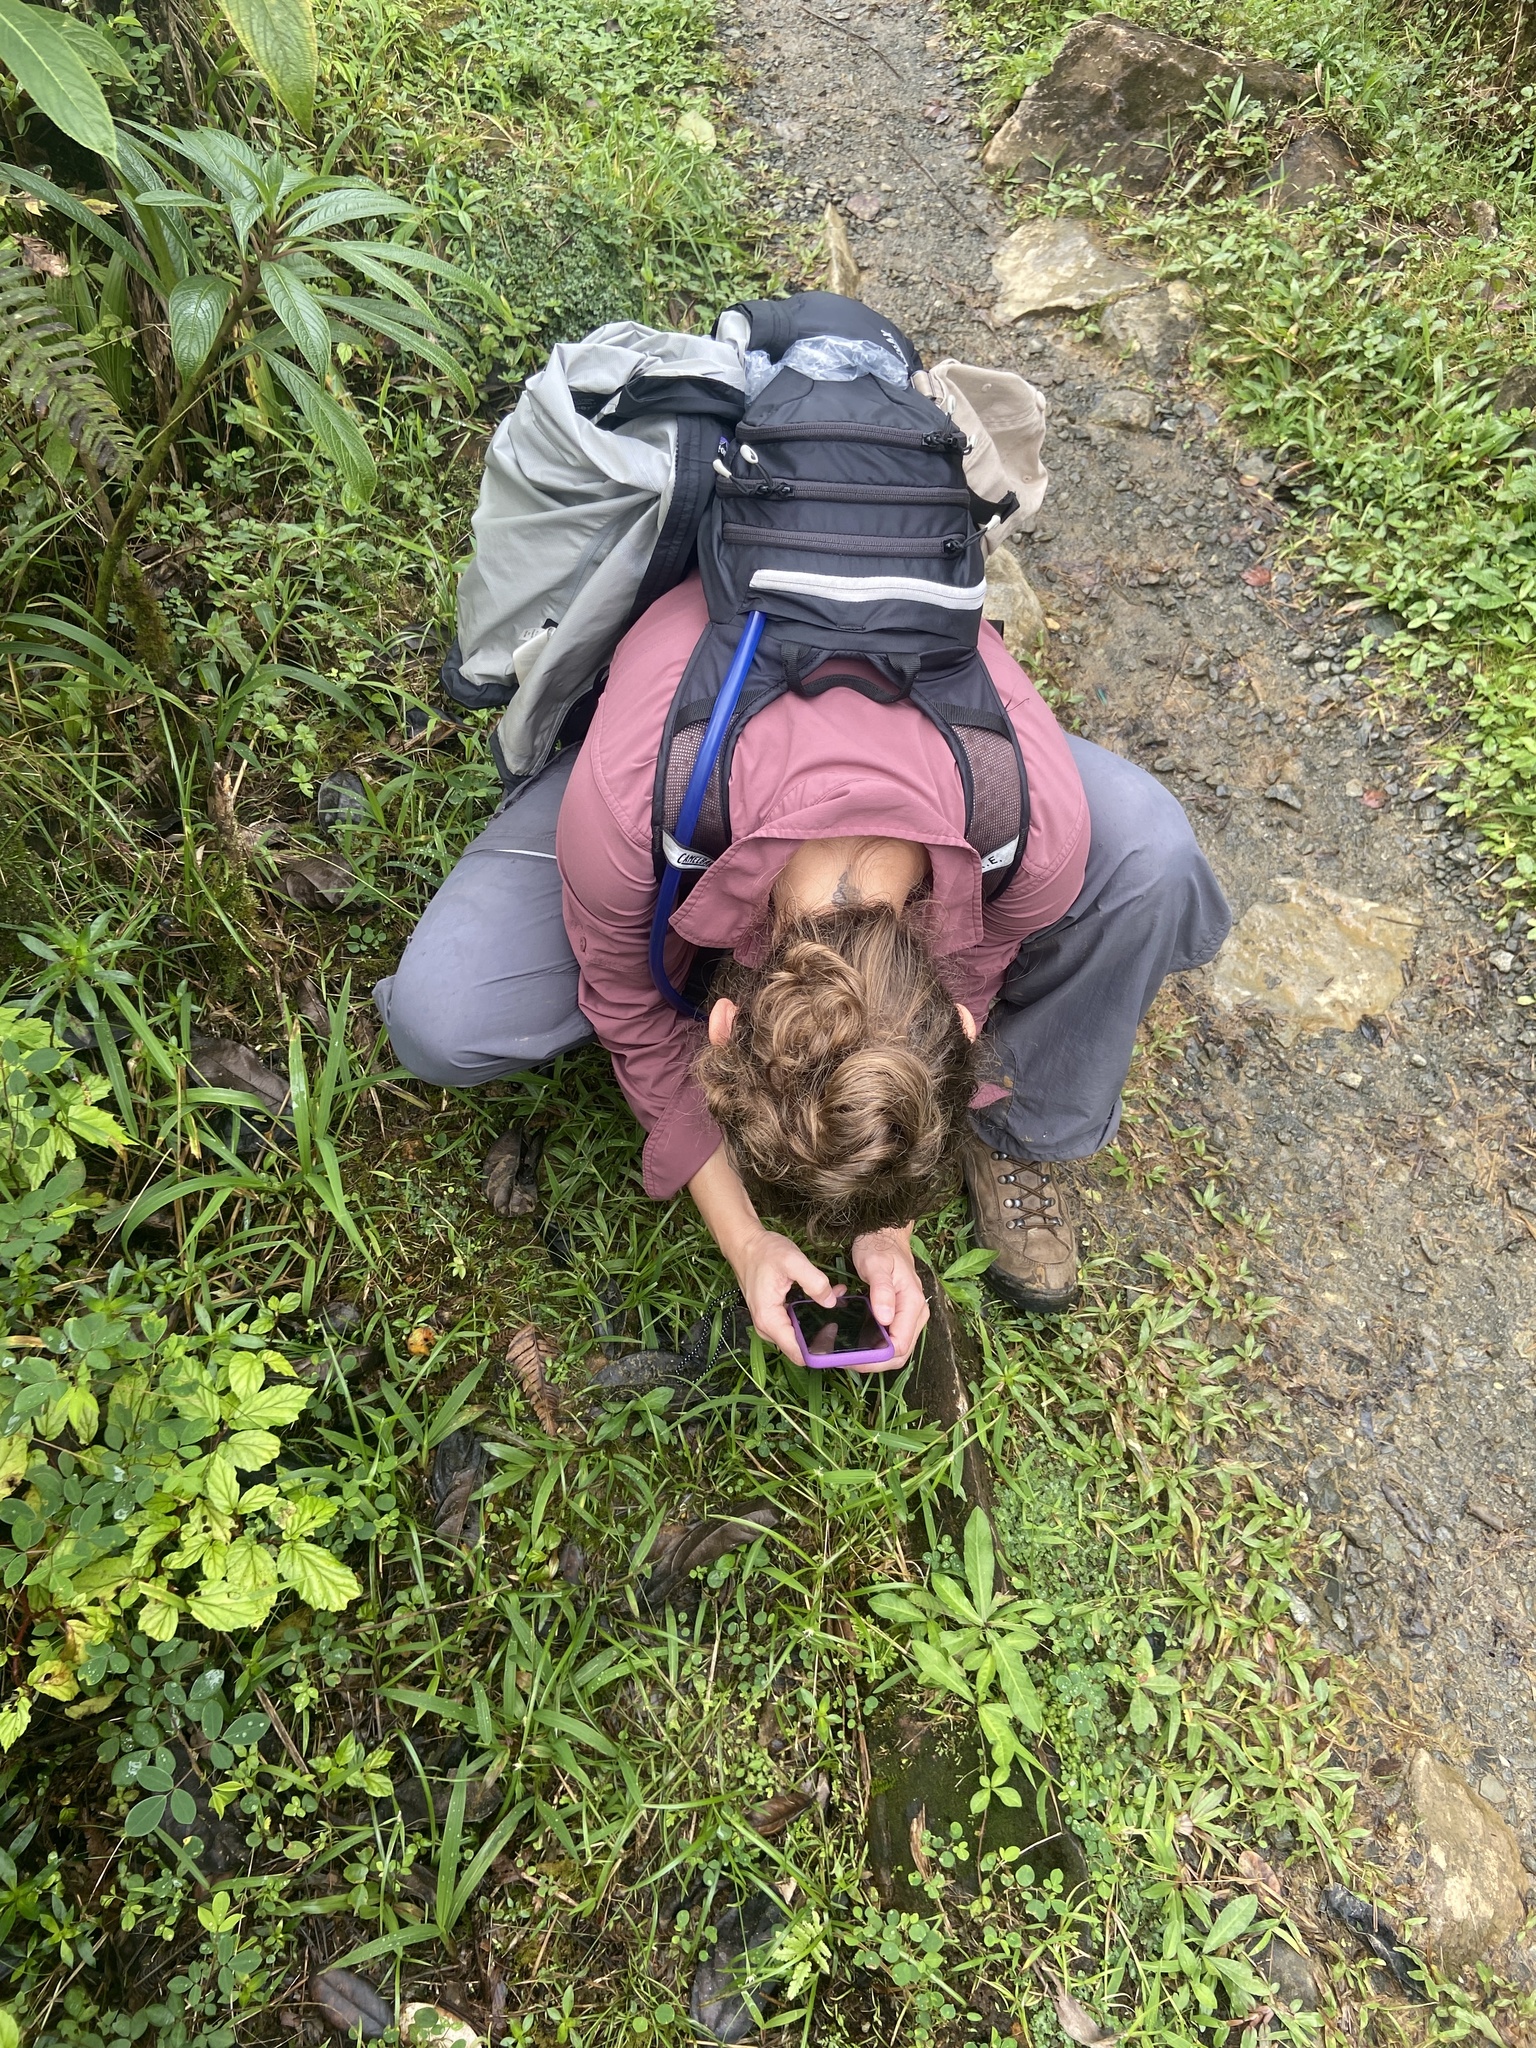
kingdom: Plantae
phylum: Tracheophyta
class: Liliopsida
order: Poales
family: Cyperaceae
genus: Rhynchospora
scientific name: Rhynchospora radicans
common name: Tropical whitetop
